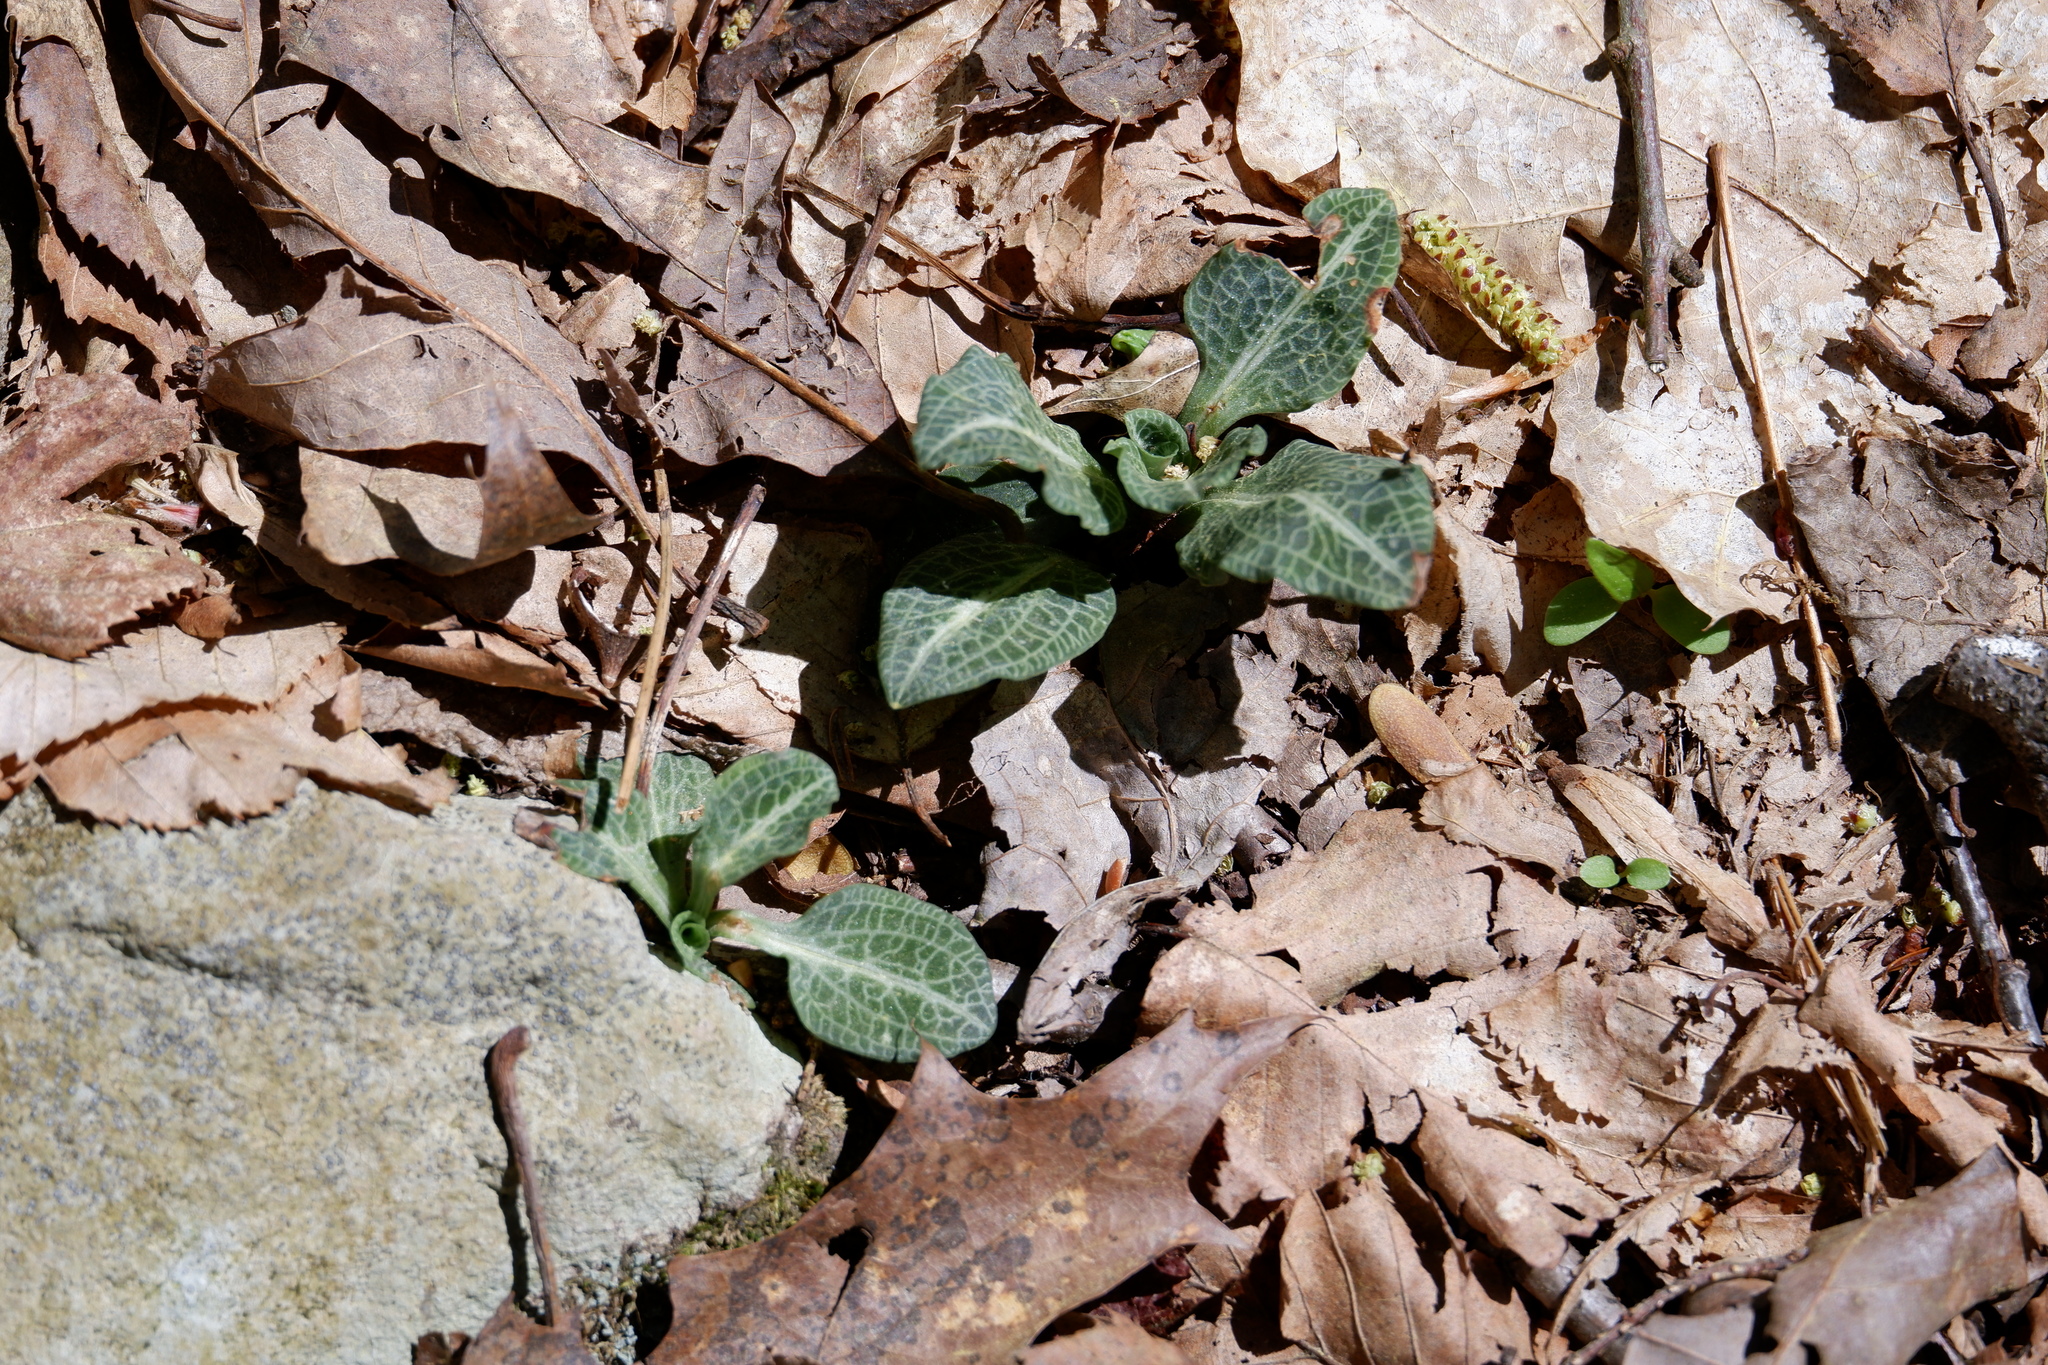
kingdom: Plantae
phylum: Tracheophyta
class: Liliopsida
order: Asparagales
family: Orchidaceae
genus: Goodyera
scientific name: Goodyera pubescens
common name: Downy rattlesnake-plantain
